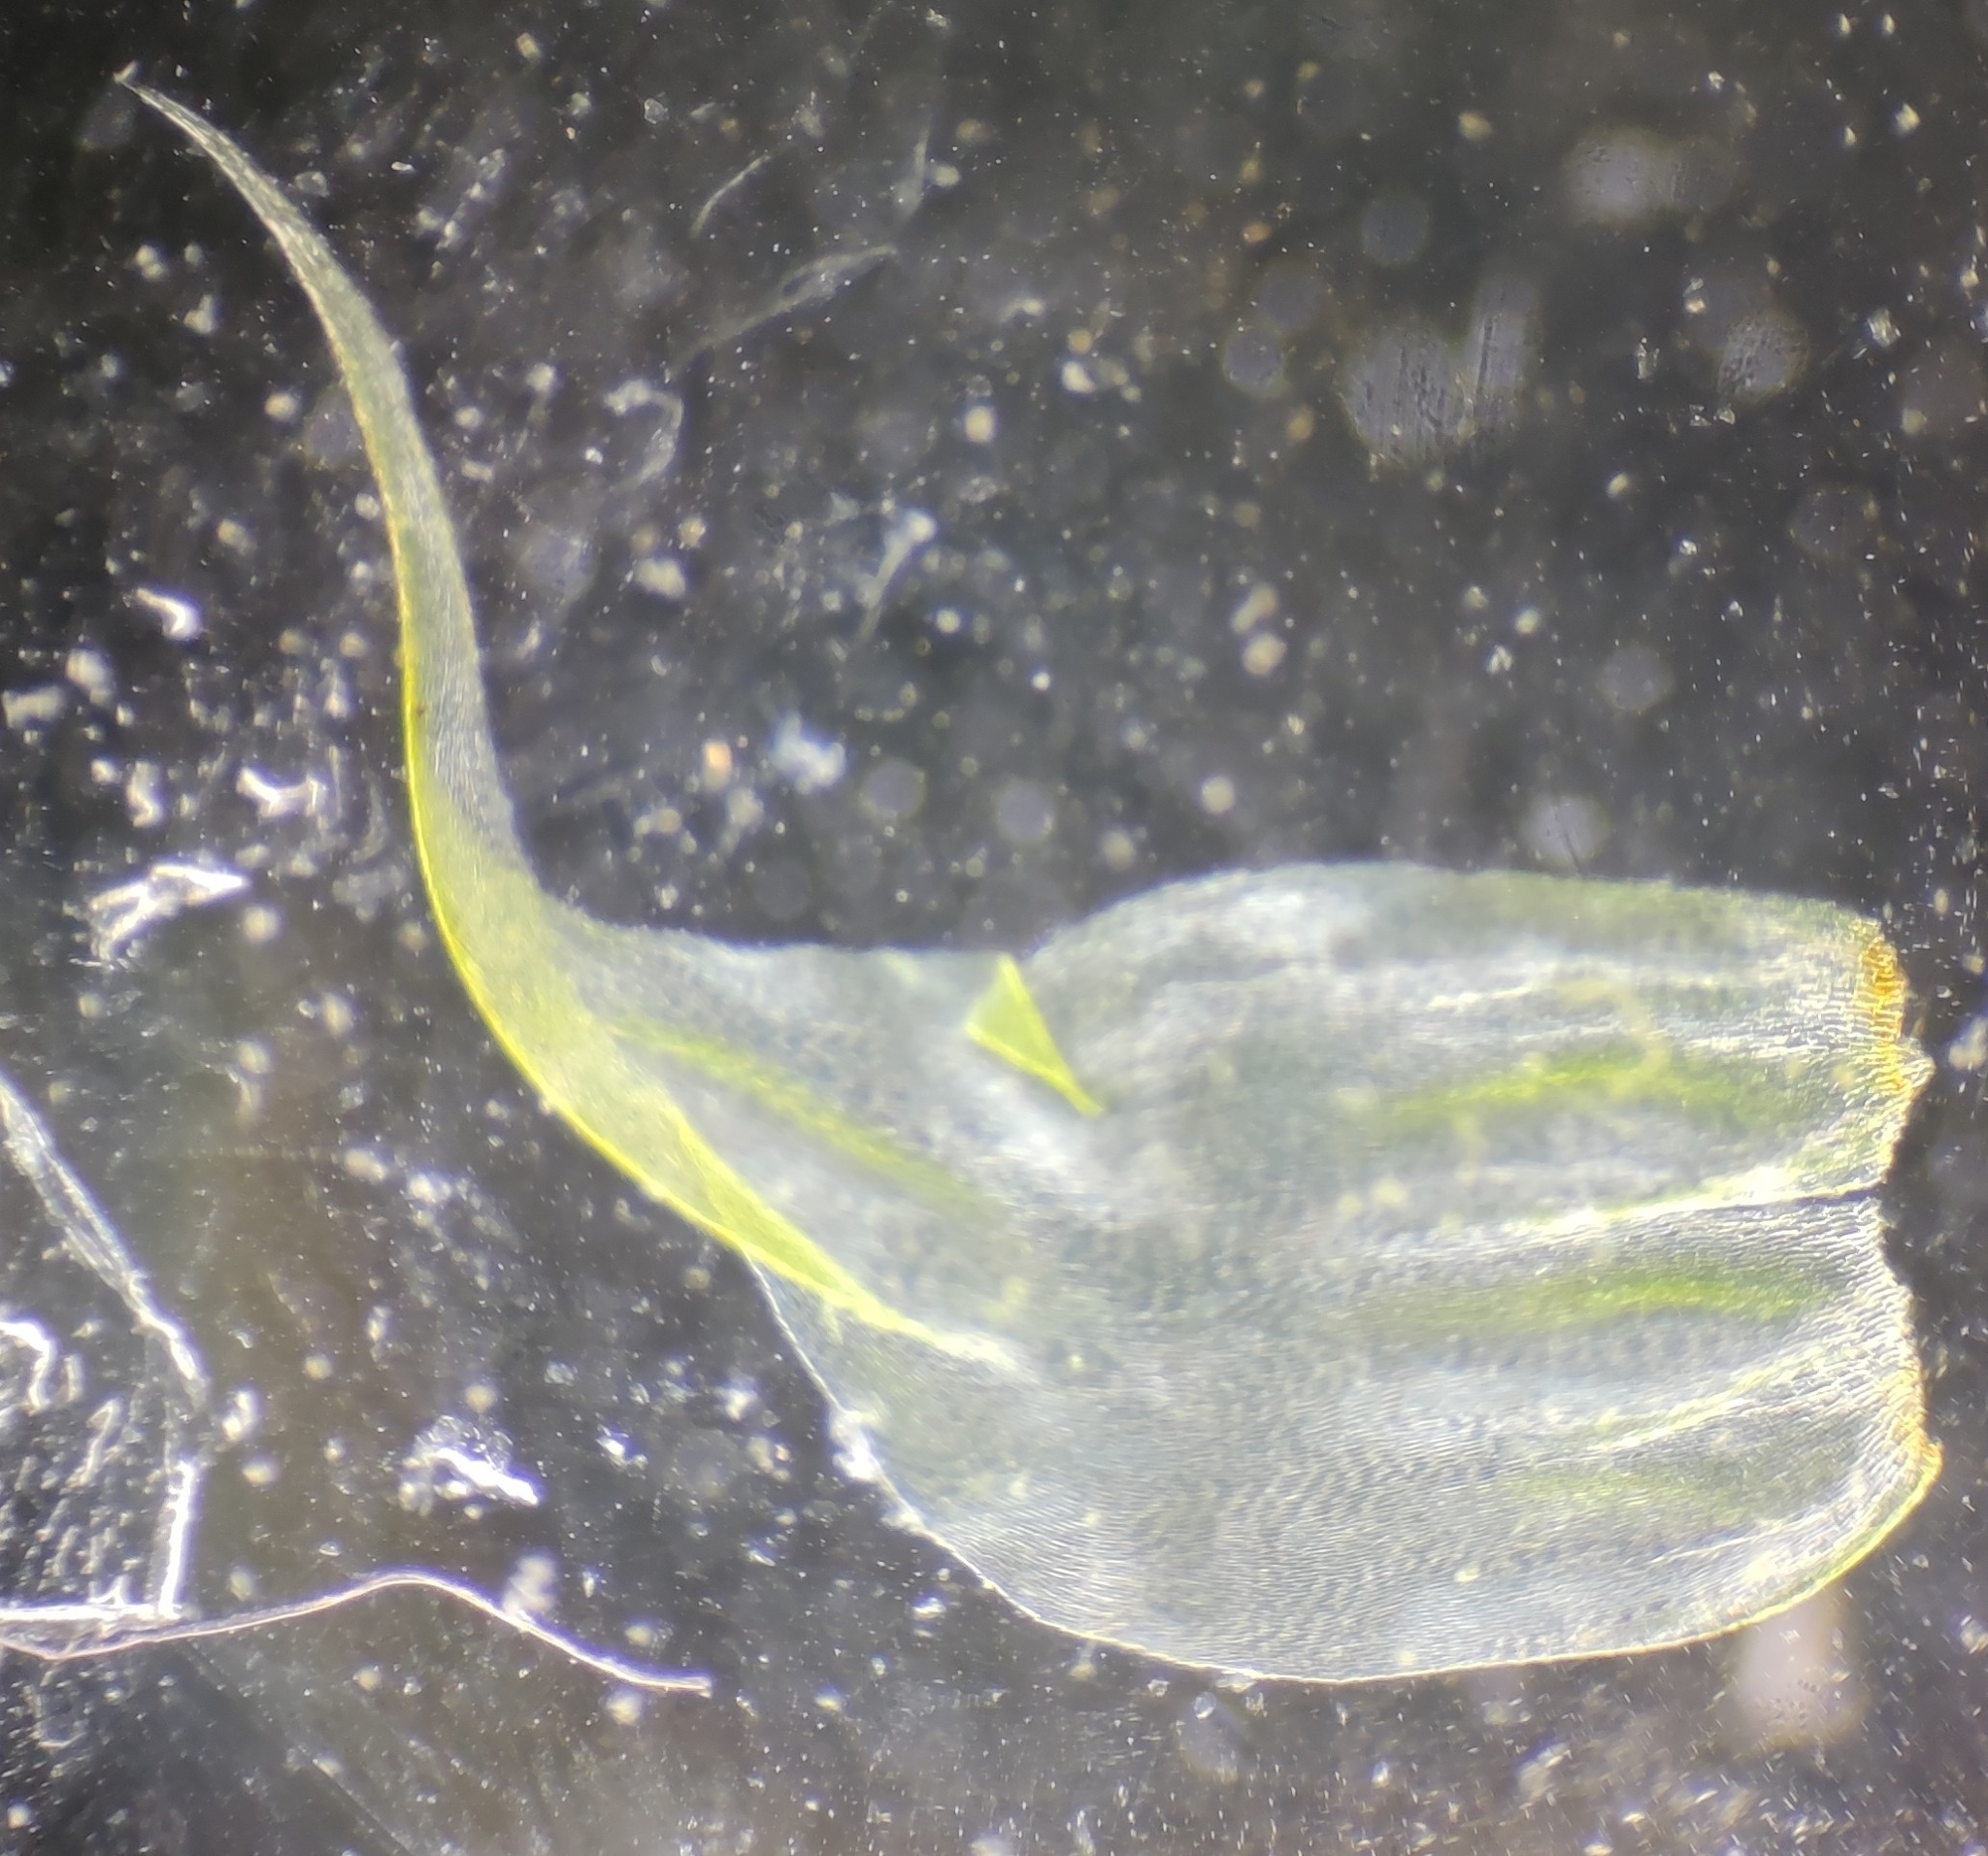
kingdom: Plantae
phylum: Bryophyta
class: Bryopsida
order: Hypnales
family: Hylocomiaceae
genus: Rhytidiadelphus
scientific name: Rhytidiadelphus loreus
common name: Lanky moss
